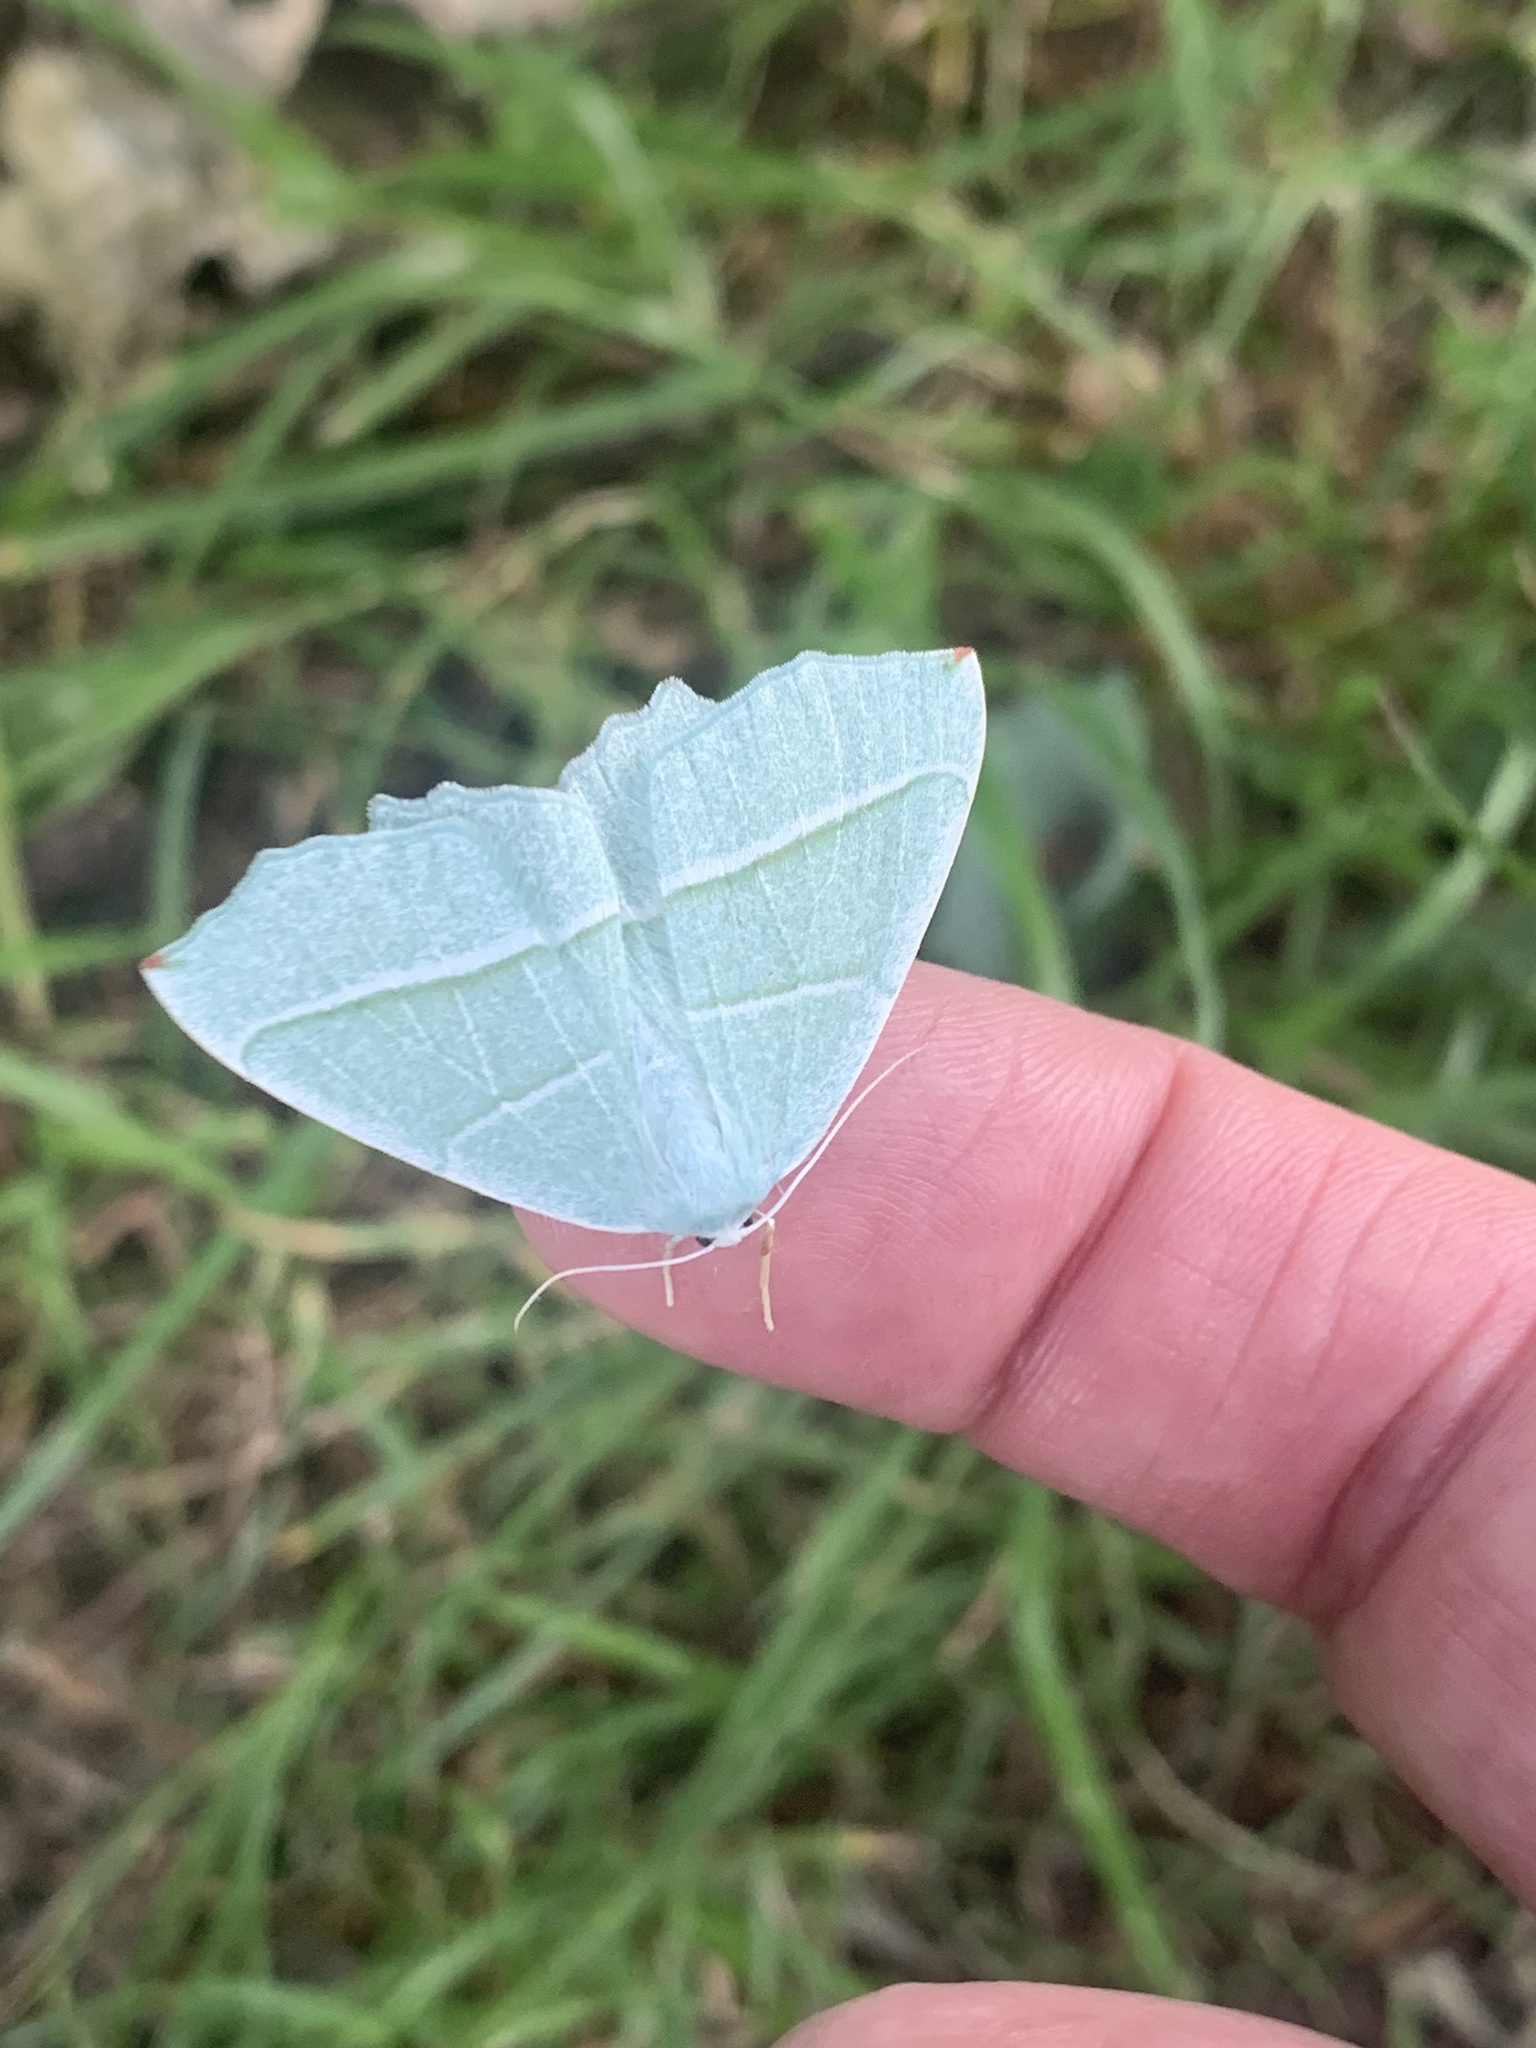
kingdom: Animalia
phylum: Arthropoda
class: Insecta
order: Lepidoptera
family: Geometridae
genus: Campaea
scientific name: Campaea margaritaria
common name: Light emerald
